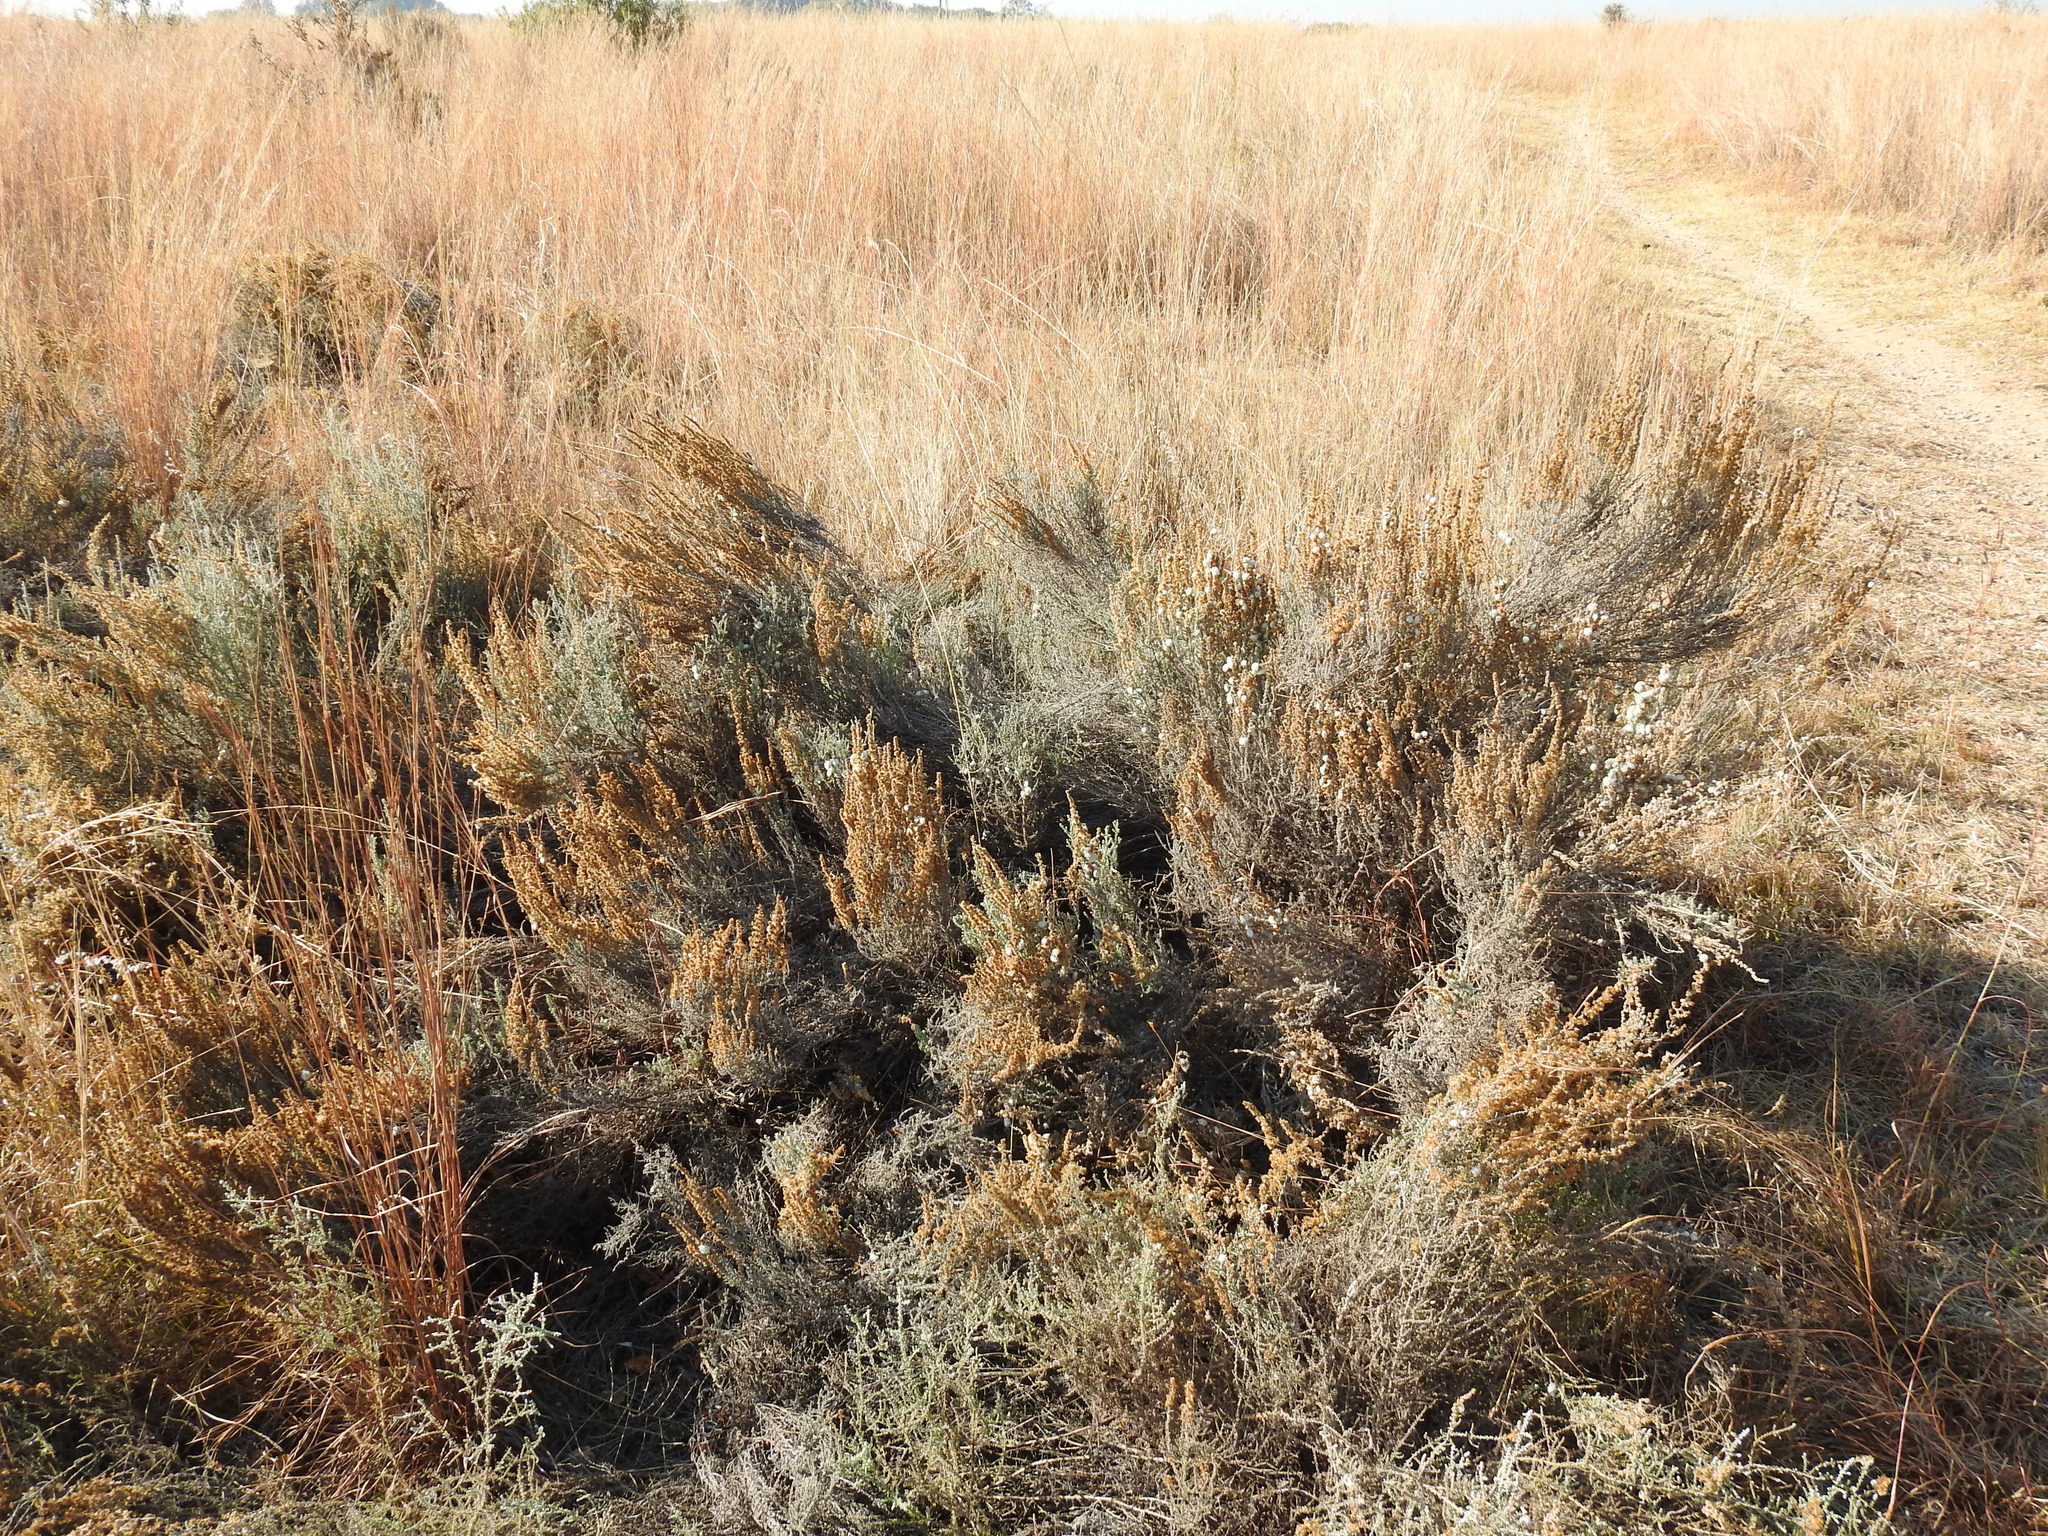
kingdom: Plantae
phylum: Tracheophyta
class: Magnoliopsida
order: Asterales
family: Asteraceae
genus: Seriphium
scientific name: Seriphium plumosum
